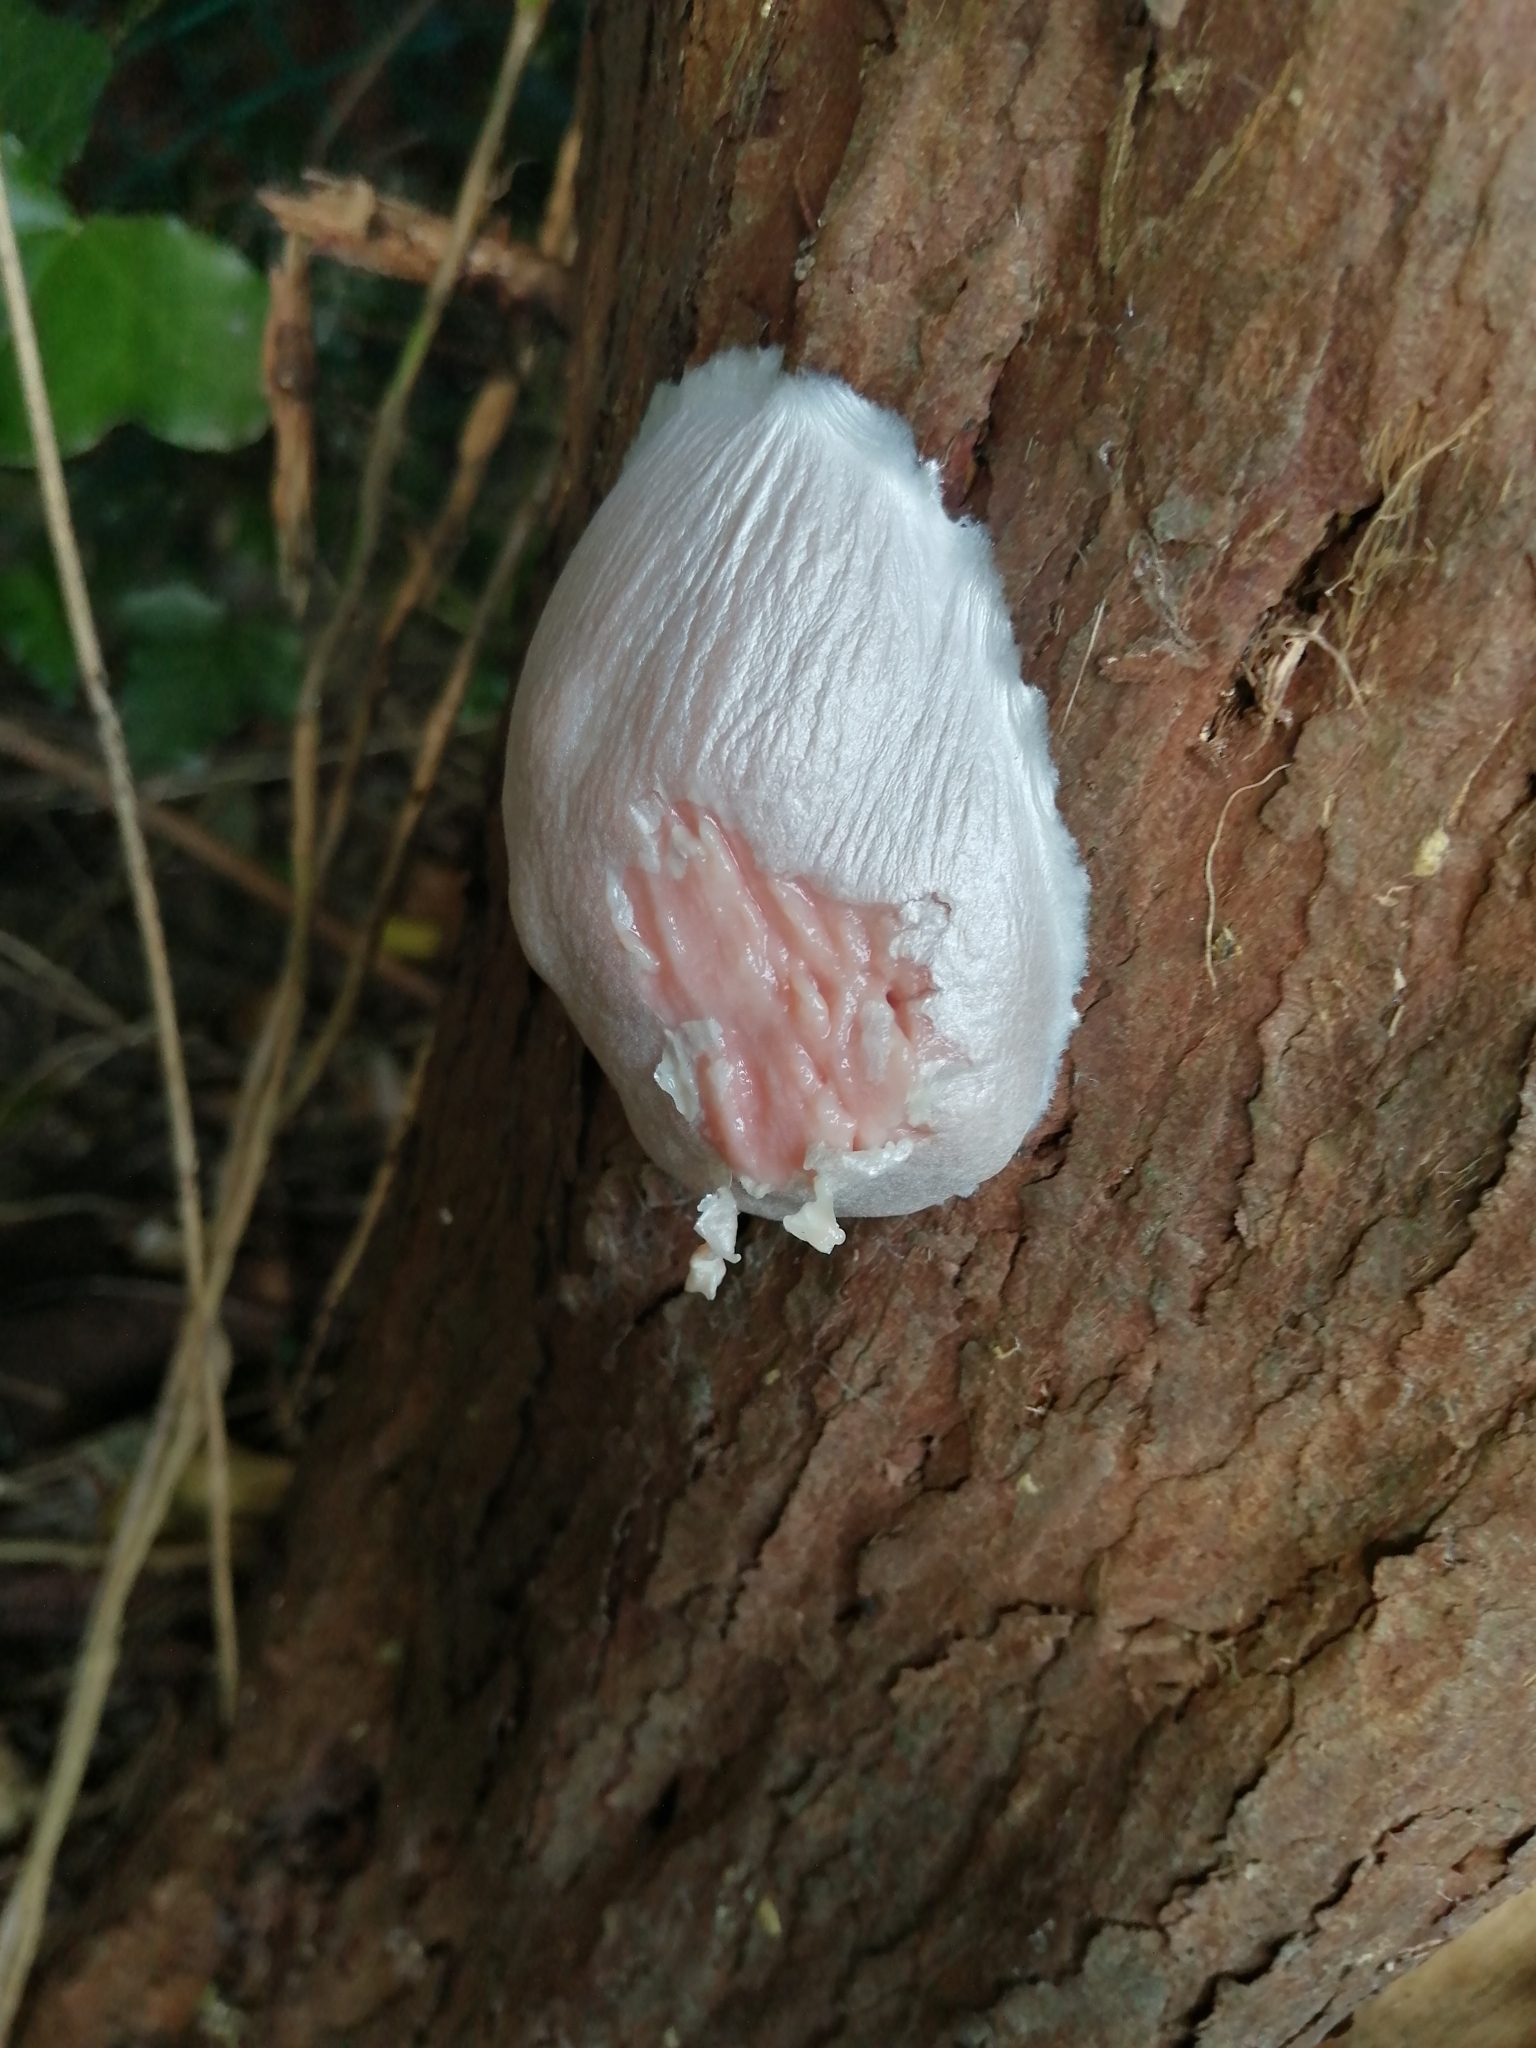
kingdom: Protozoa
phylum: Mycetozoa
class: Myxomycetes
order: Cribrariales
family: Tubiferaceae
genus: Reticularia
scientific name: Reticularia lycoperdon
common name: False puffball
